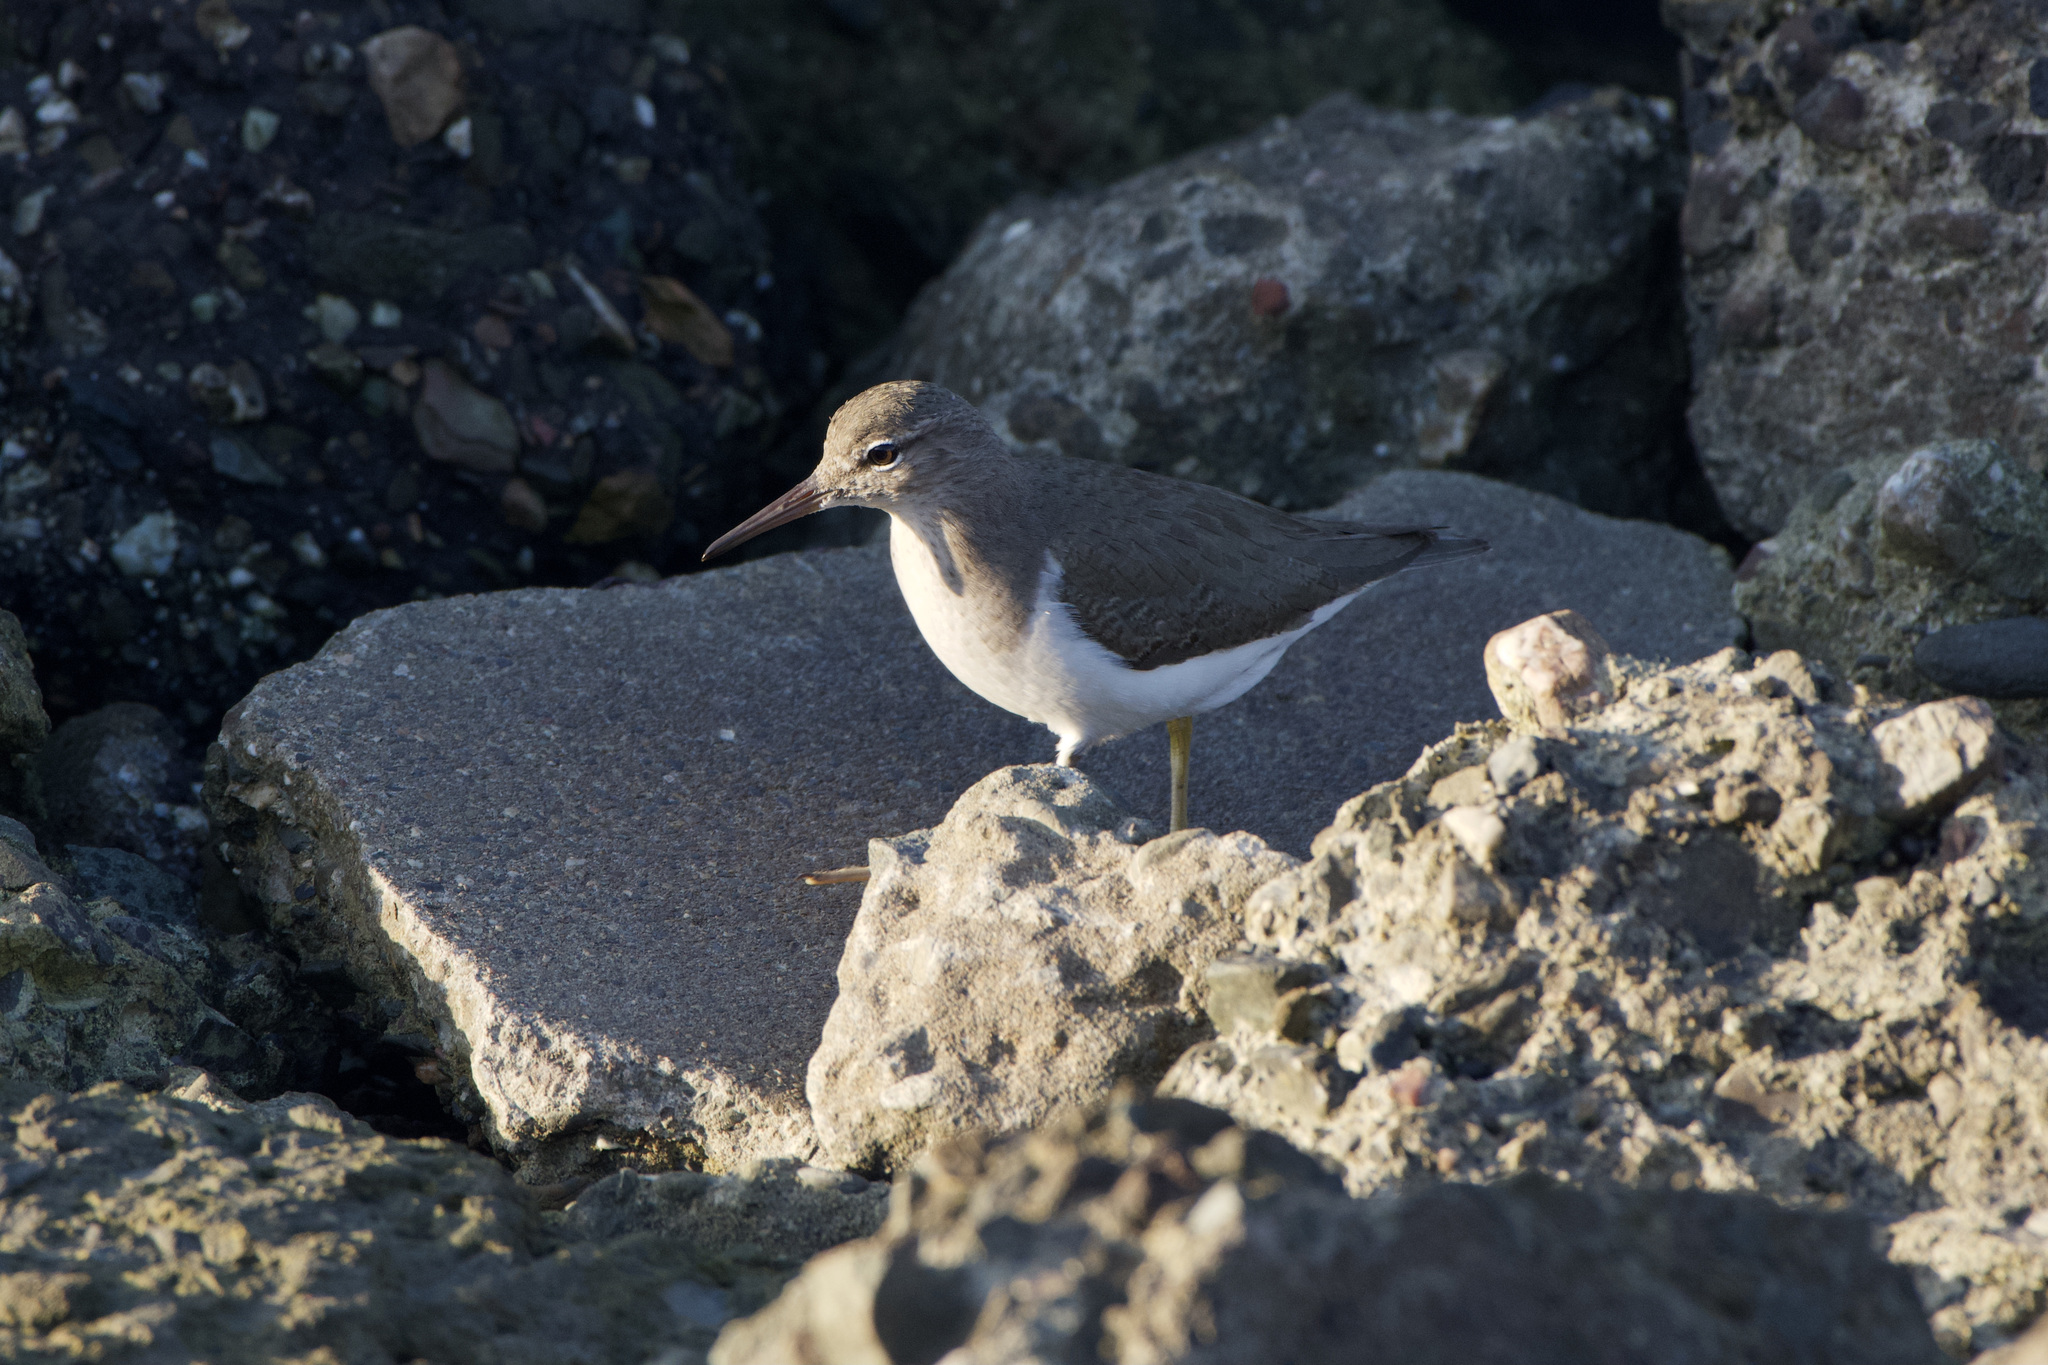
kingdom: Animalia
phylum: Chordata
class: Aves
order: Charadriiformes
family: Scolopacidae
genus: Actitis
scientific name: Actitis macularius
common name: Spotted sandpiper
